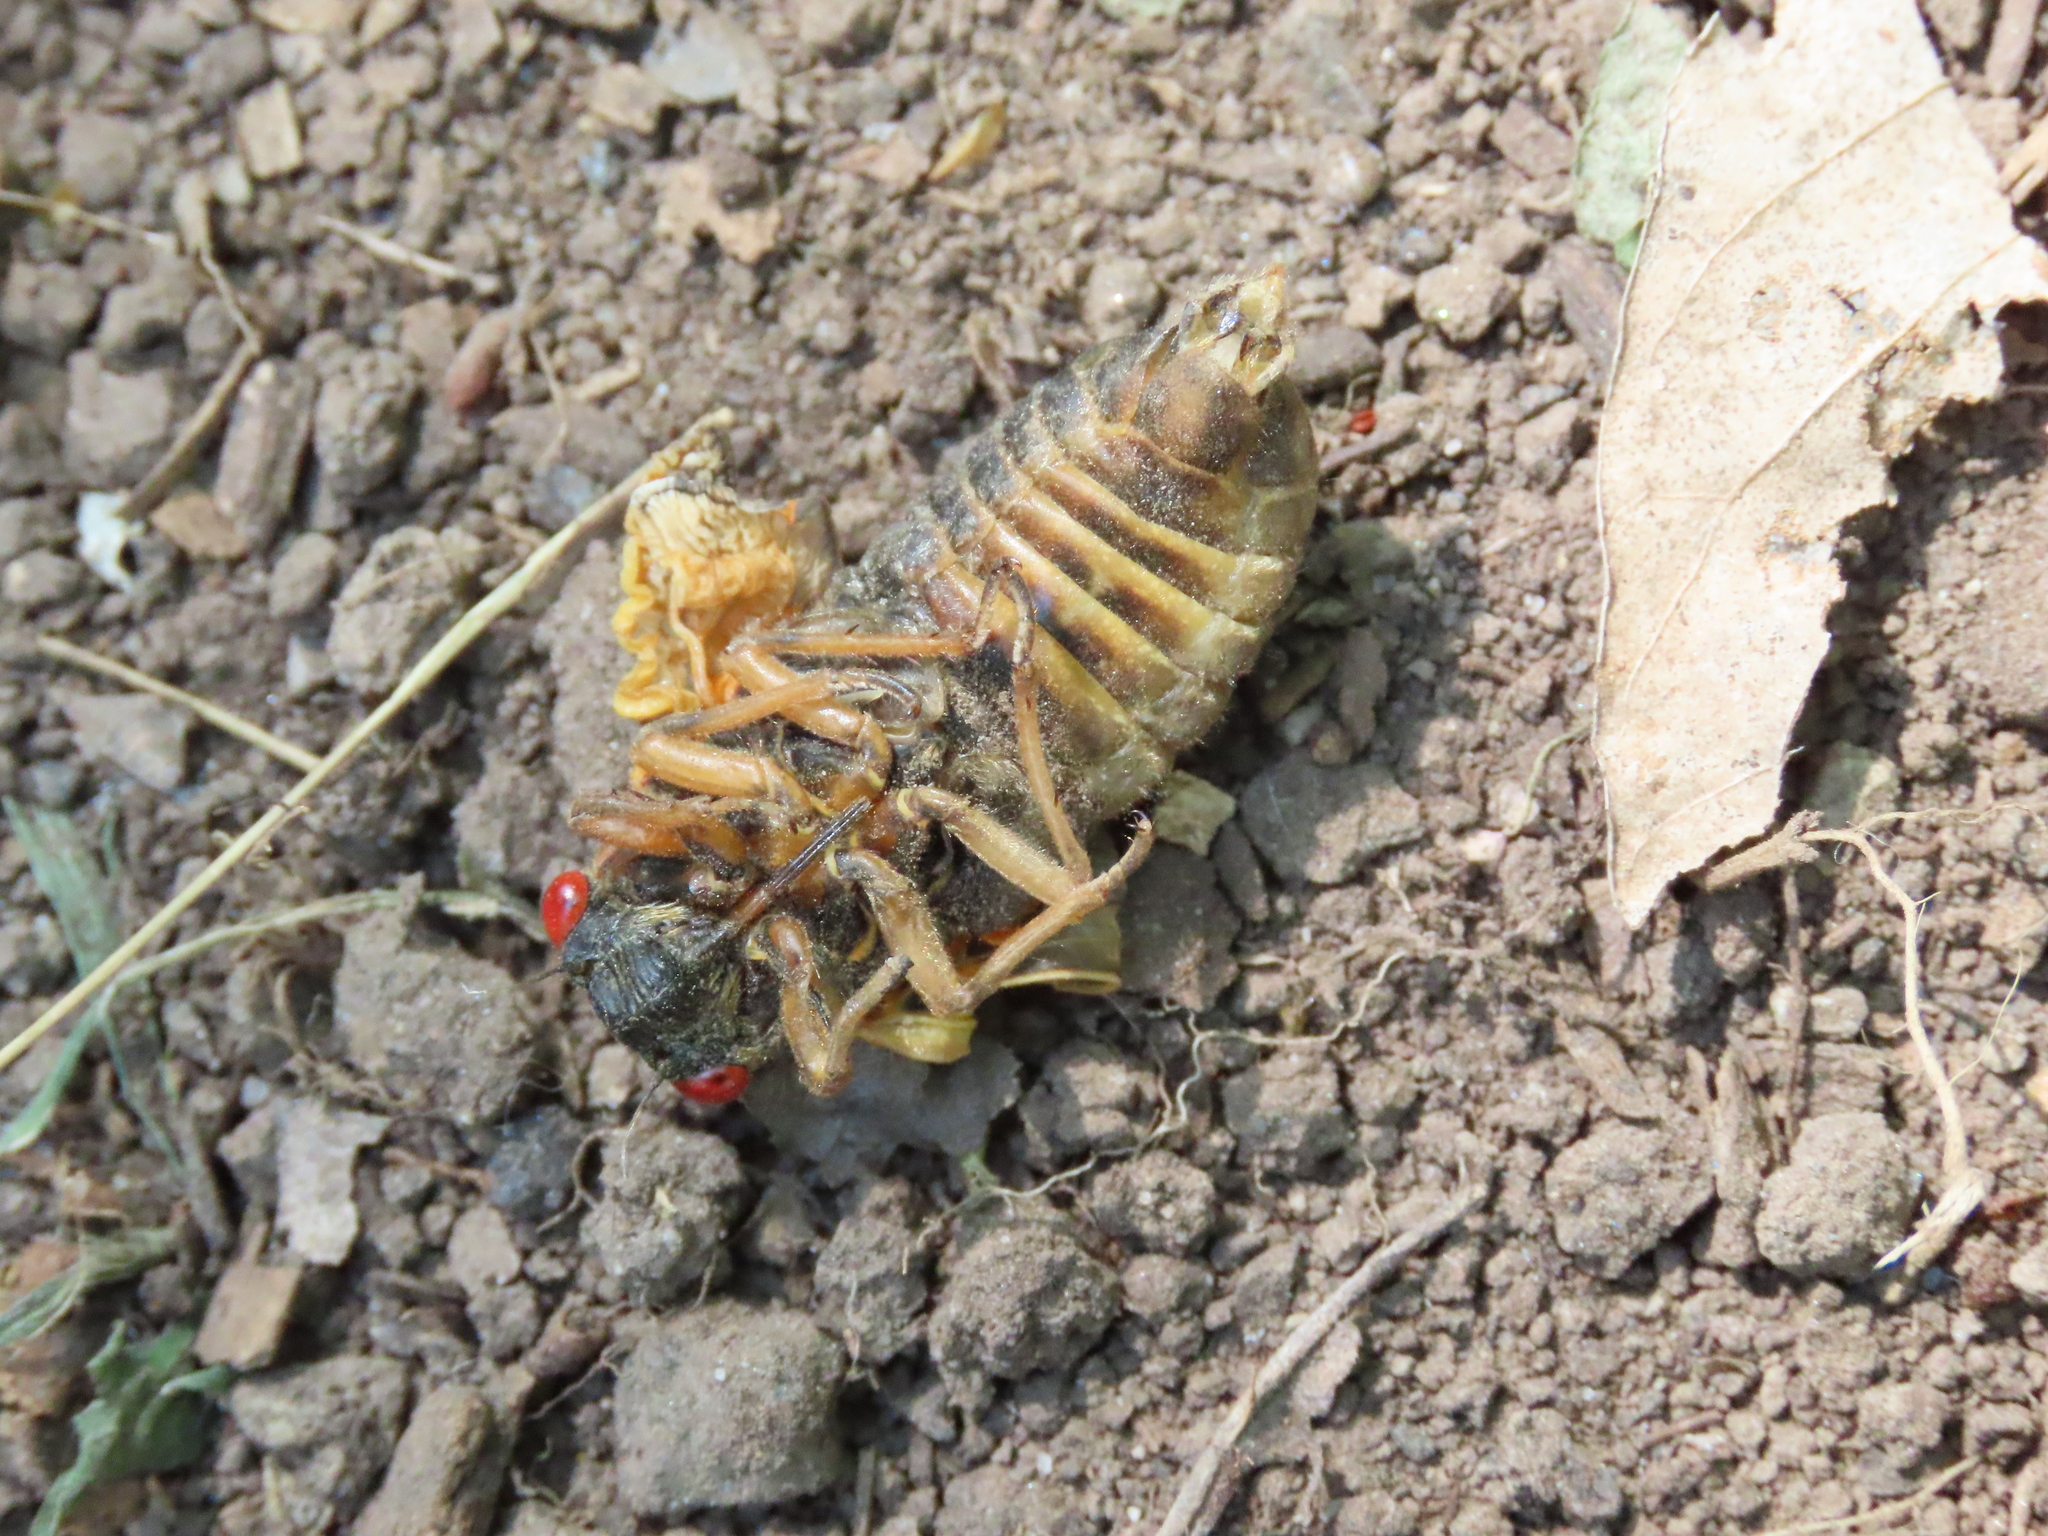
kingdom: Animalia
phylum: Arthropoda
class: Insecta
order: Hemiptera
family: Cicadidae
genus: Magicicada
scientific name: Magicicada septendecim
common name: Periodical cicada
